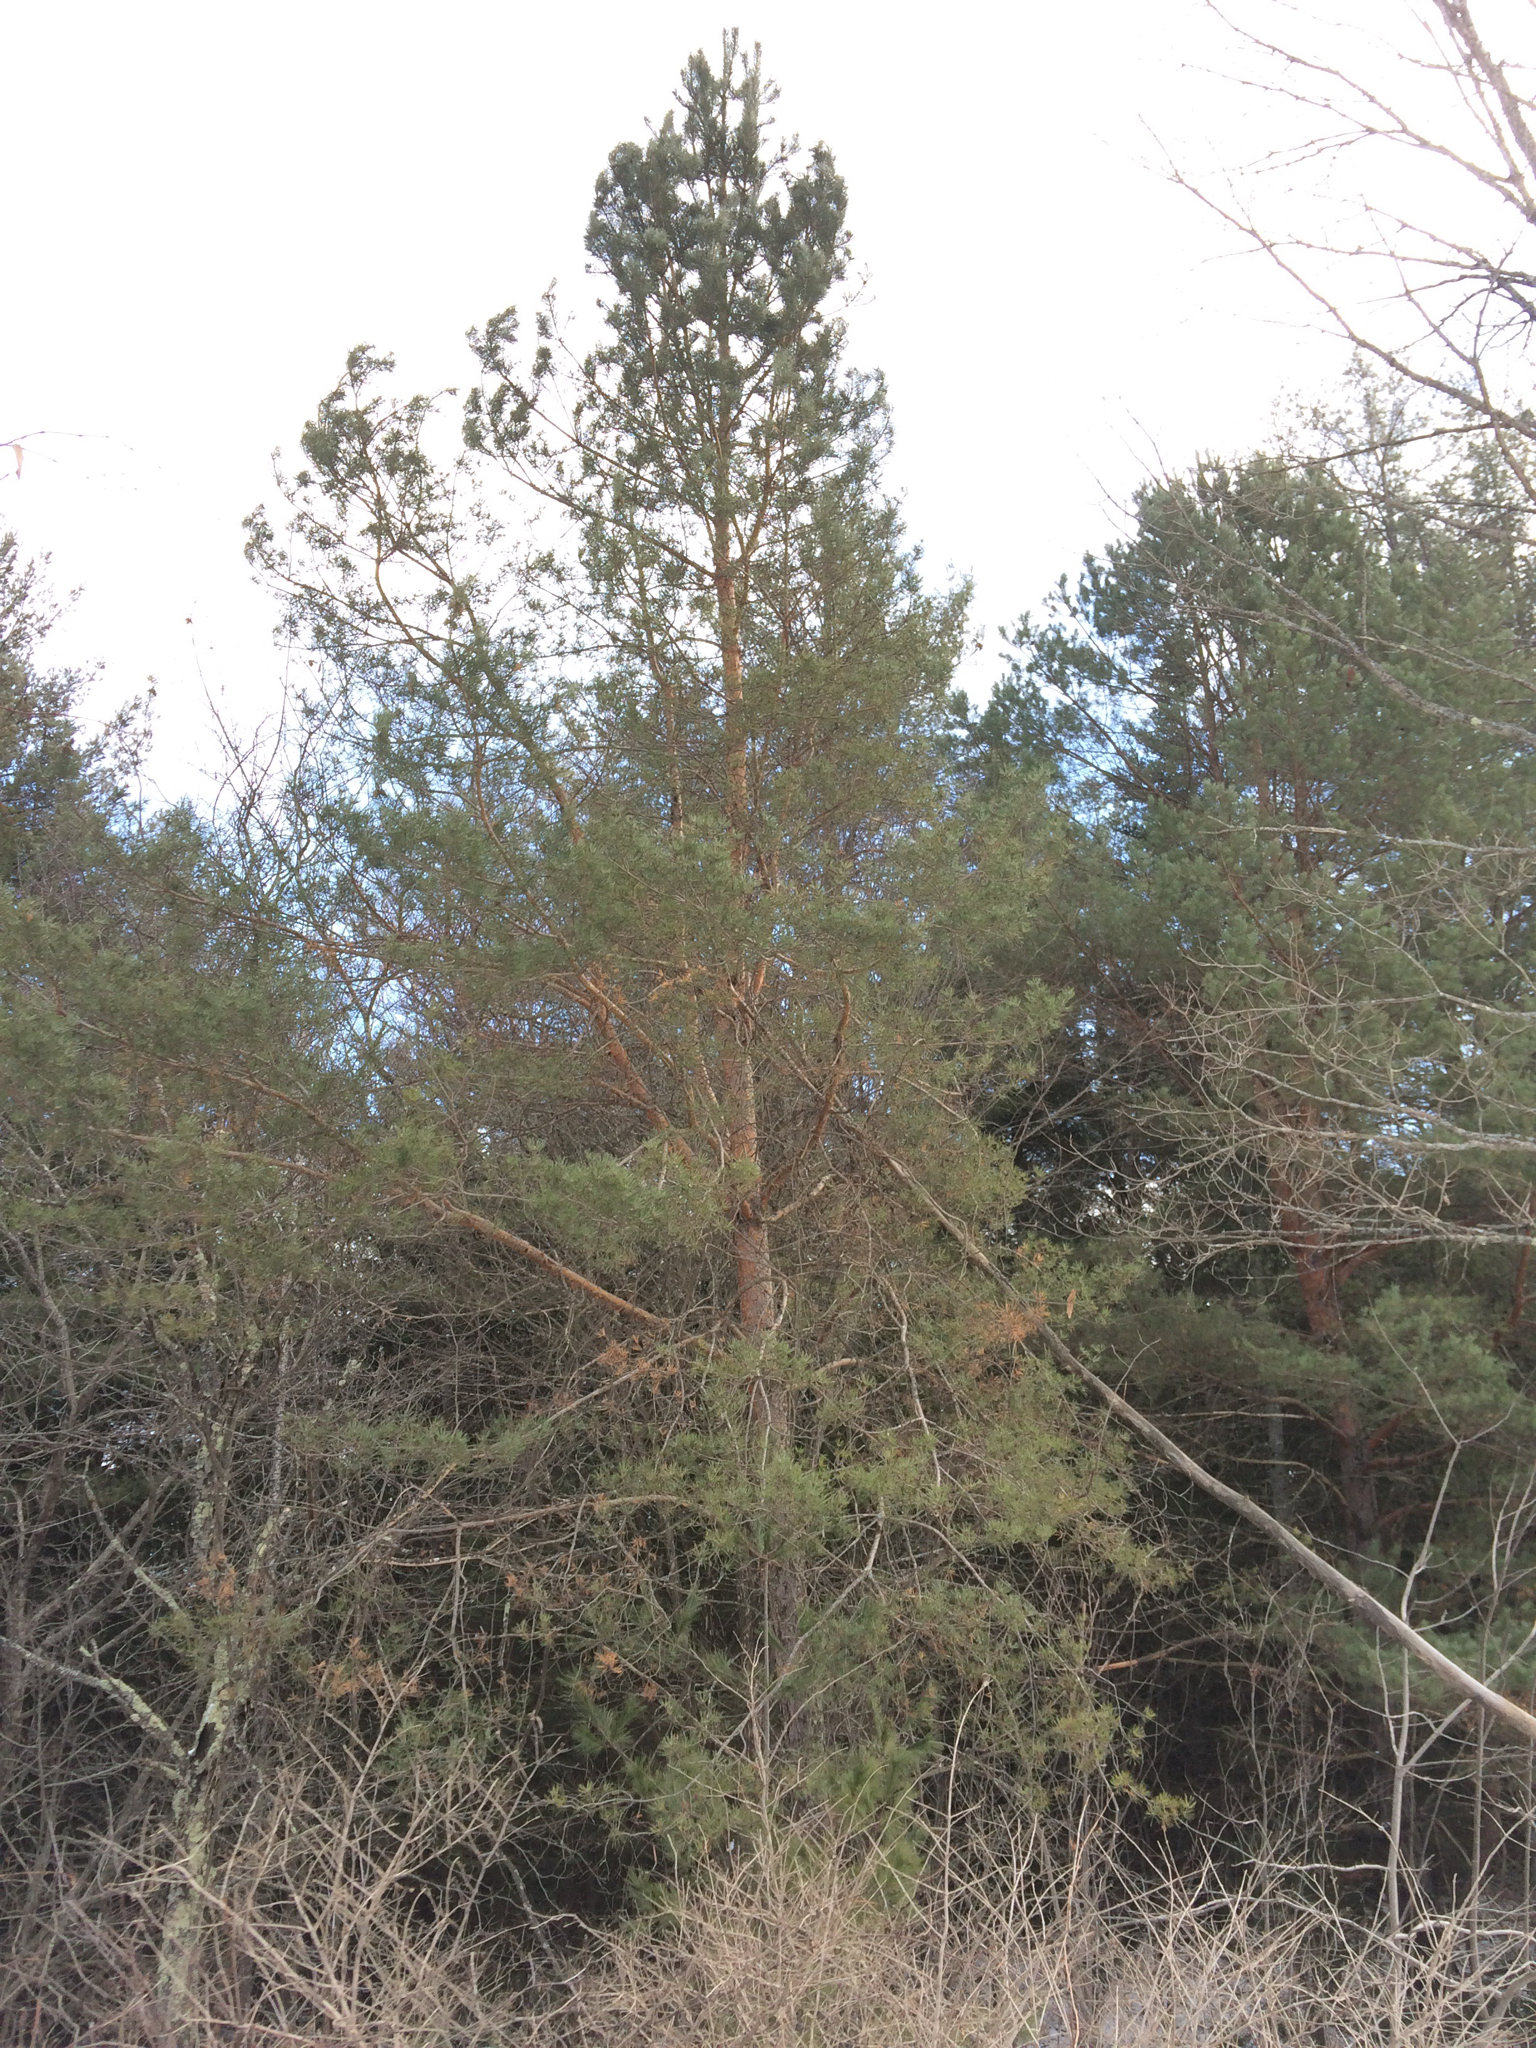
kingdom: Plantae
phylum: Tracheophyta
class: Pinopsida
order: Pinales
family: Pinaceae
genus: Pinus
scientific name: Pinus sylvestris
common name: Scots pine
